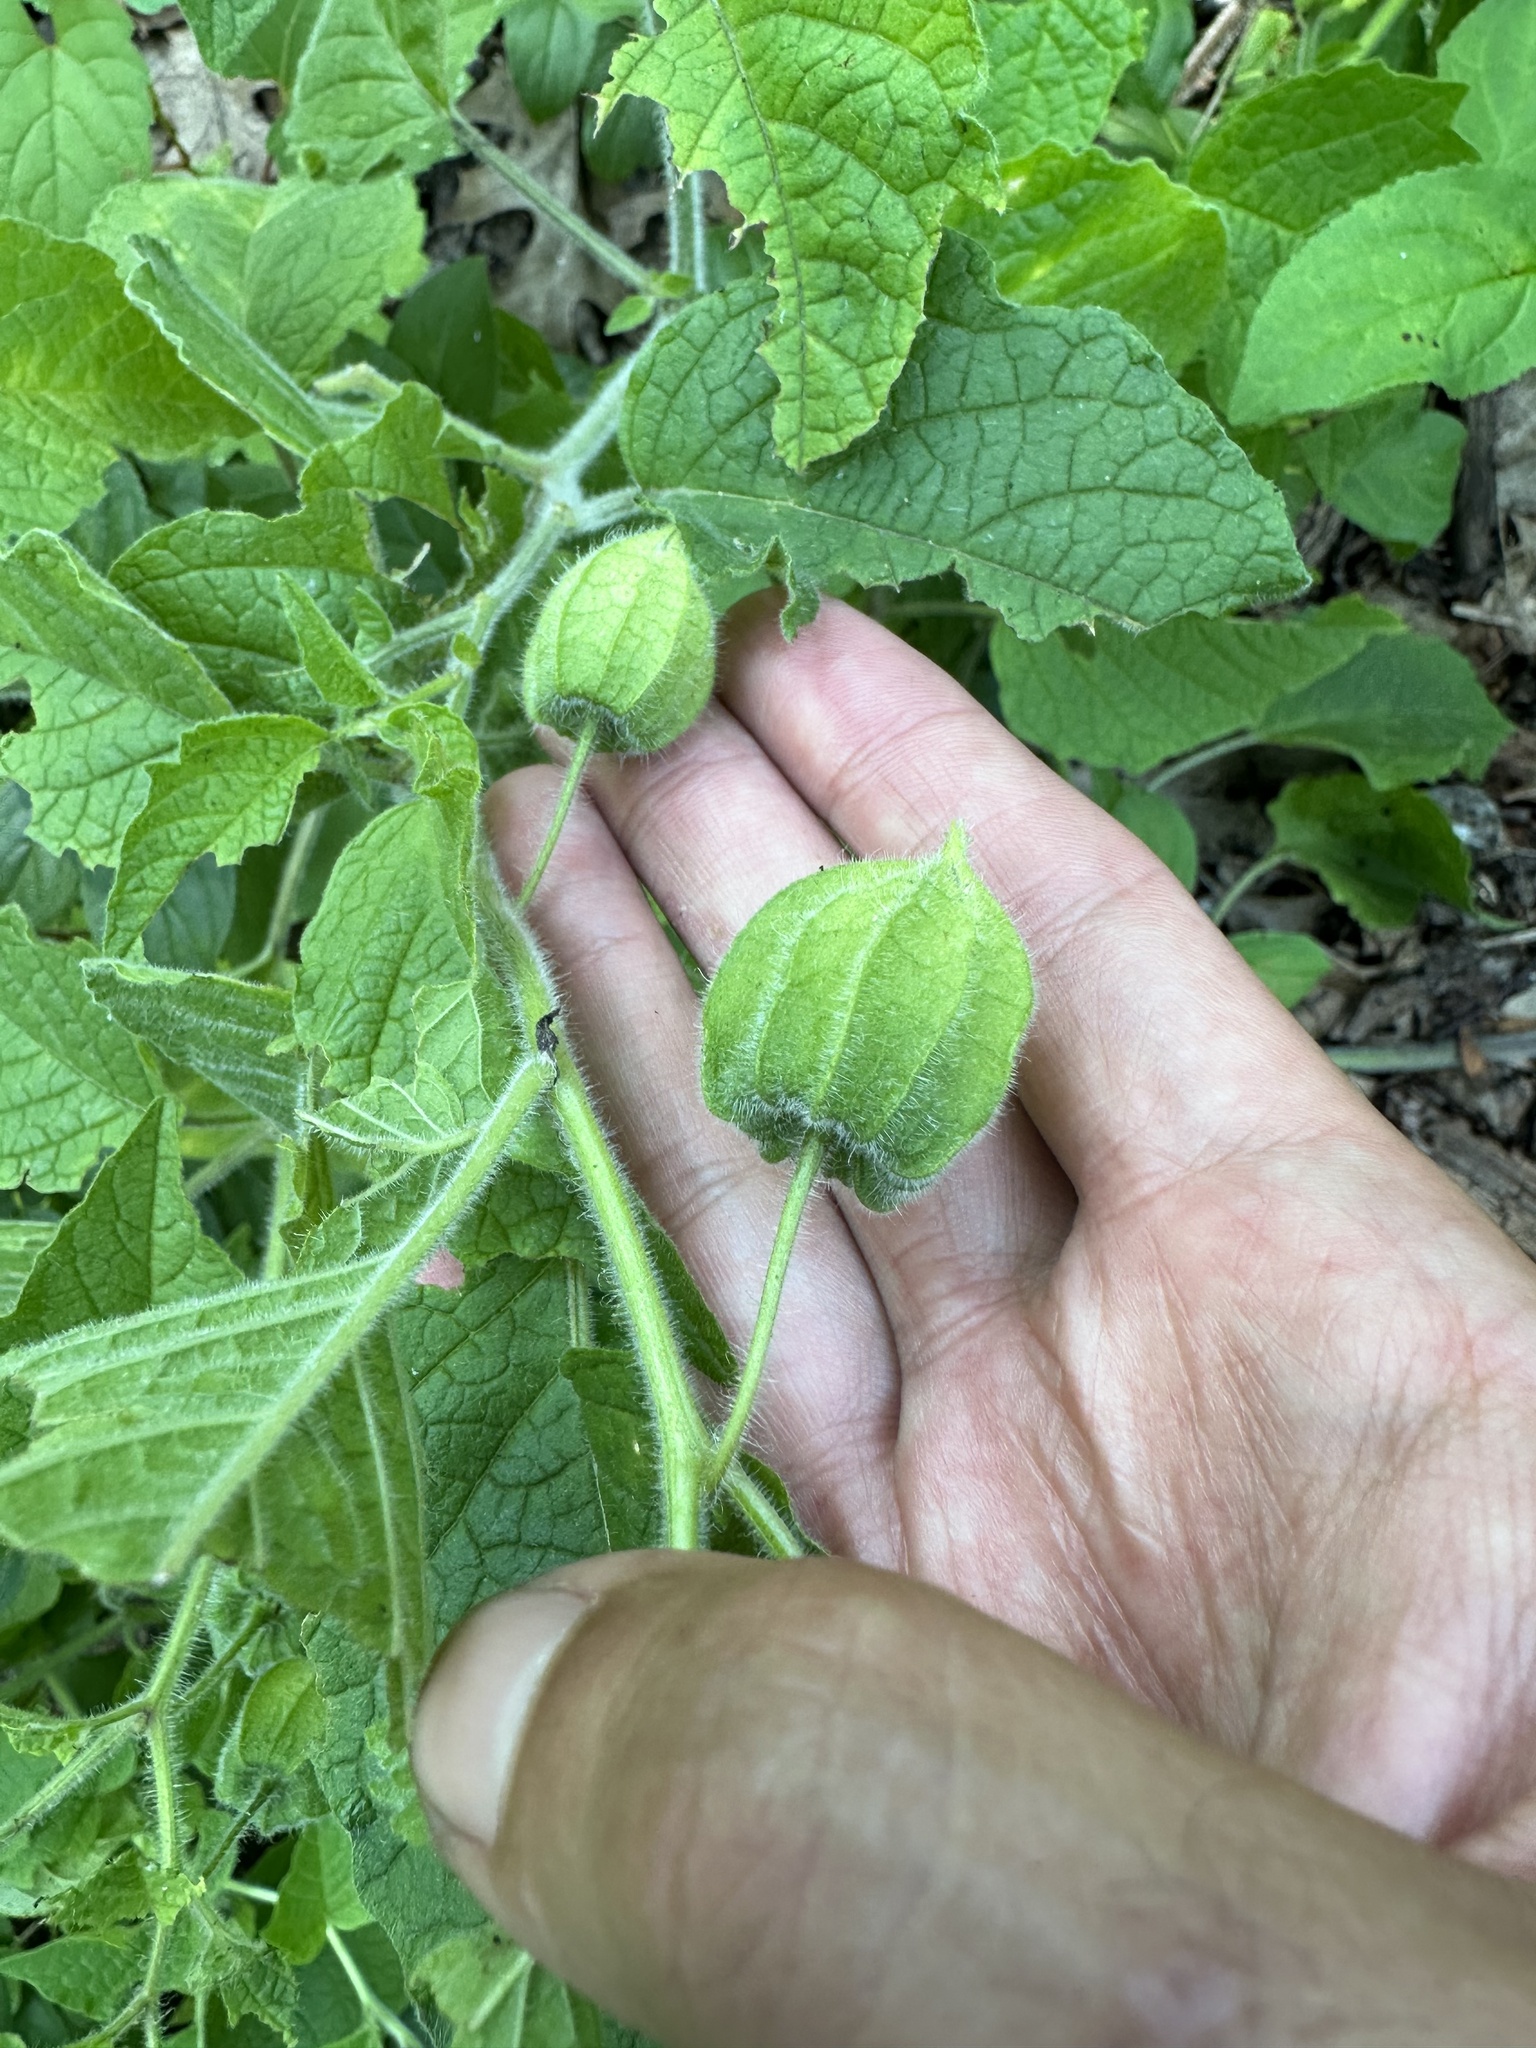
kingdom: Plantae
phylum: Tracheophyta
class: Magnoliopsida
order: Solanales
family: Solanaceae
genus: Physalis
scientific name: Physalis heterophylla
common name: Clammy ground-cherry
